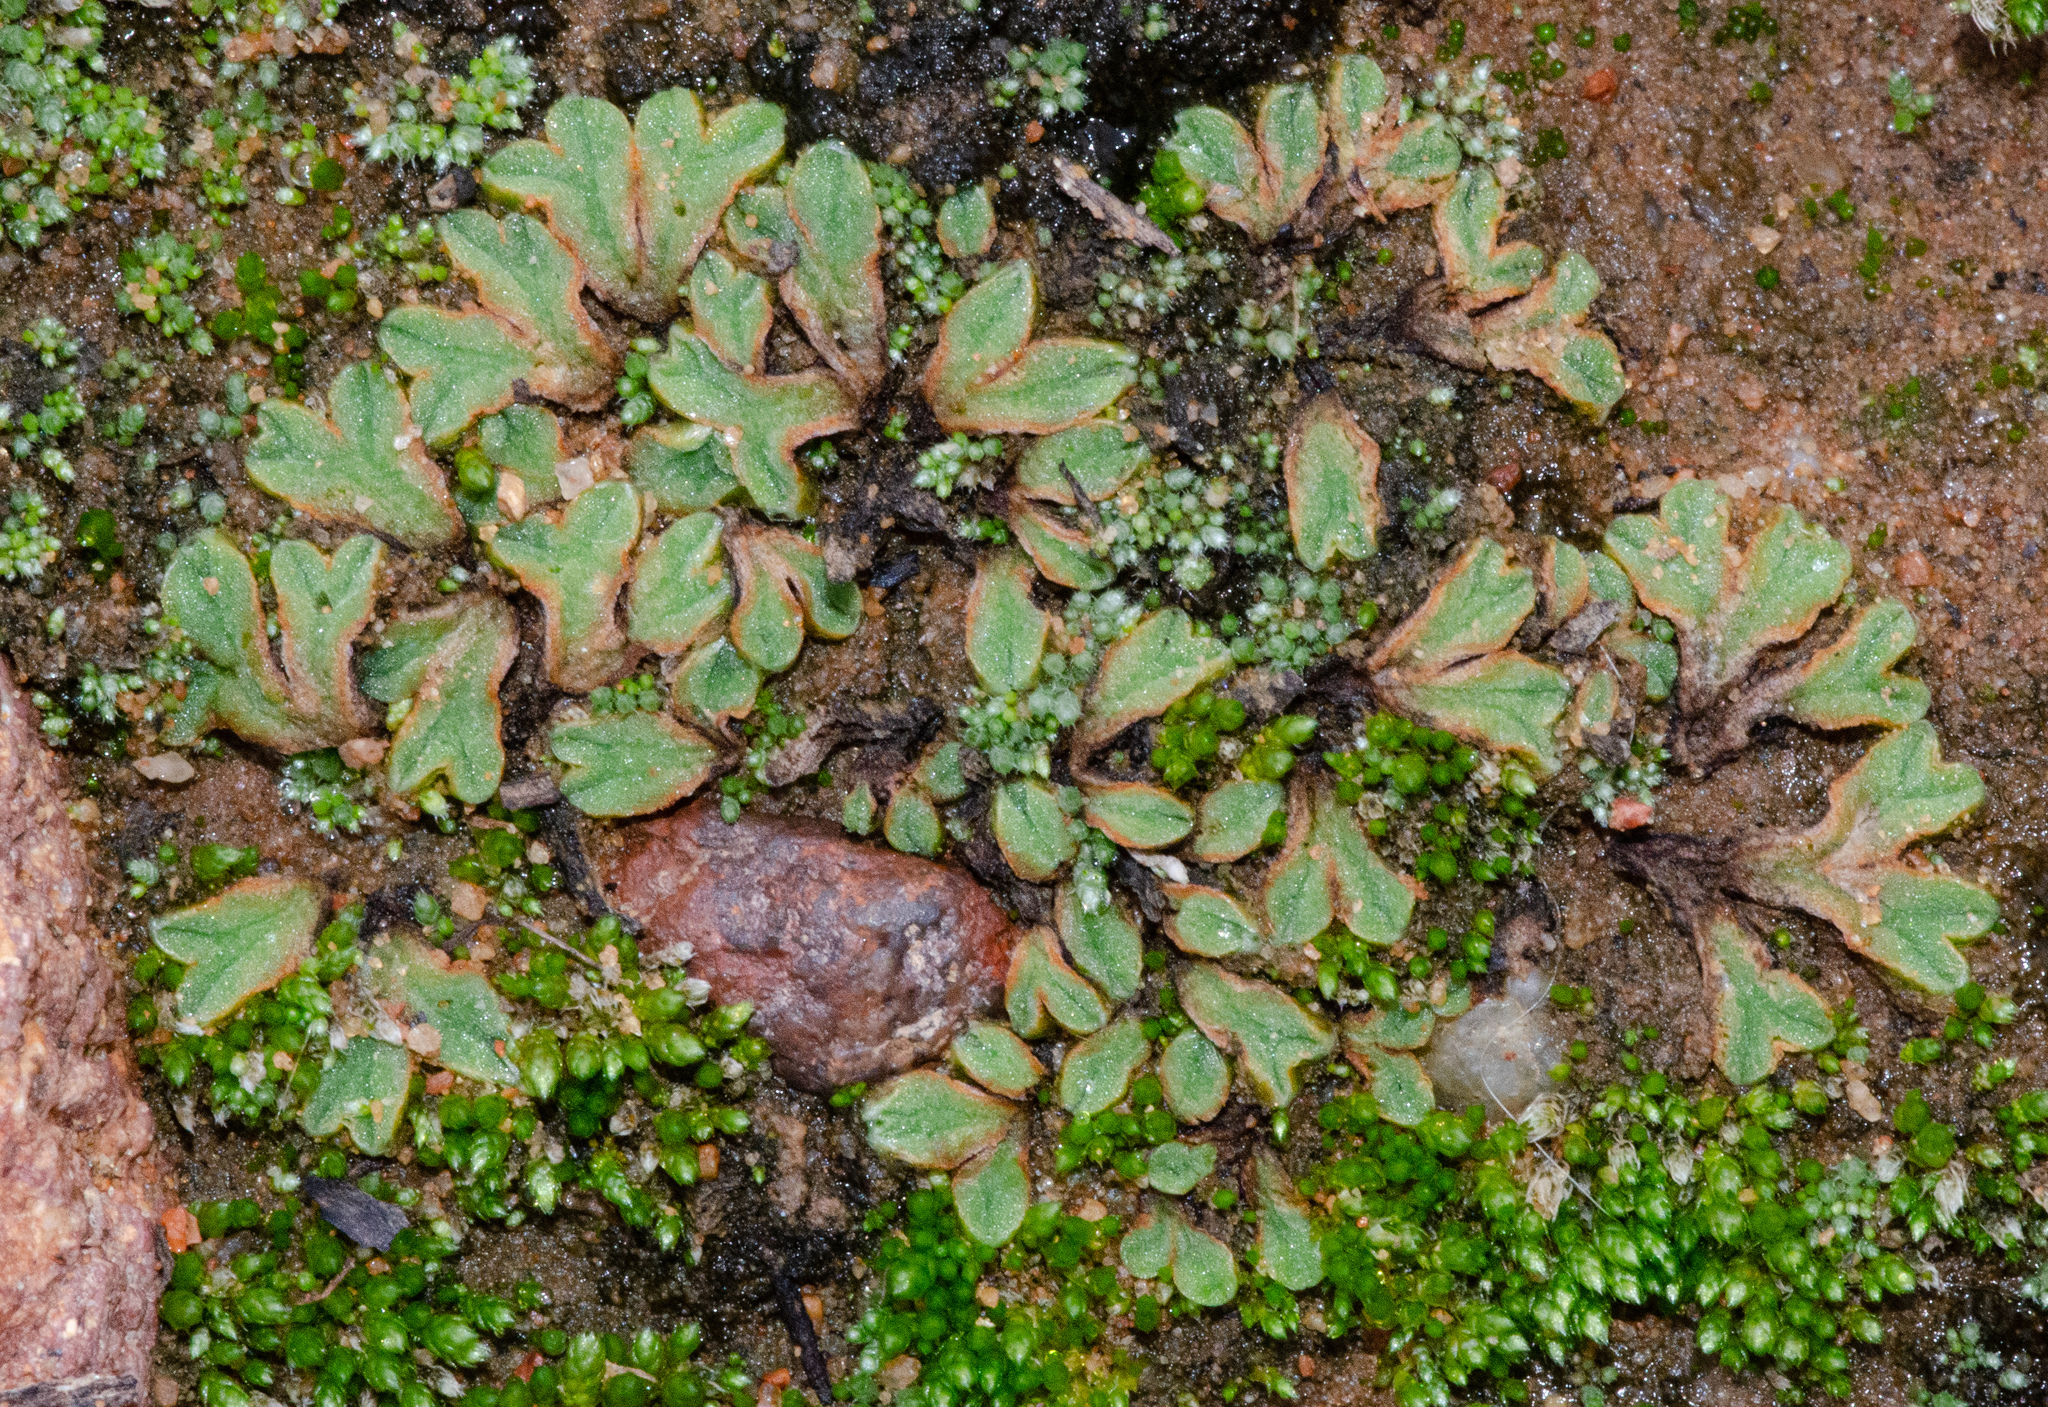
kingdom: Plantae
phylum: Marchantiophyta
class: Marchantiopsida
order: Marchantiales
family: Ricciaceae
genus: Riccia
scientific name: Riccia campbelliana
